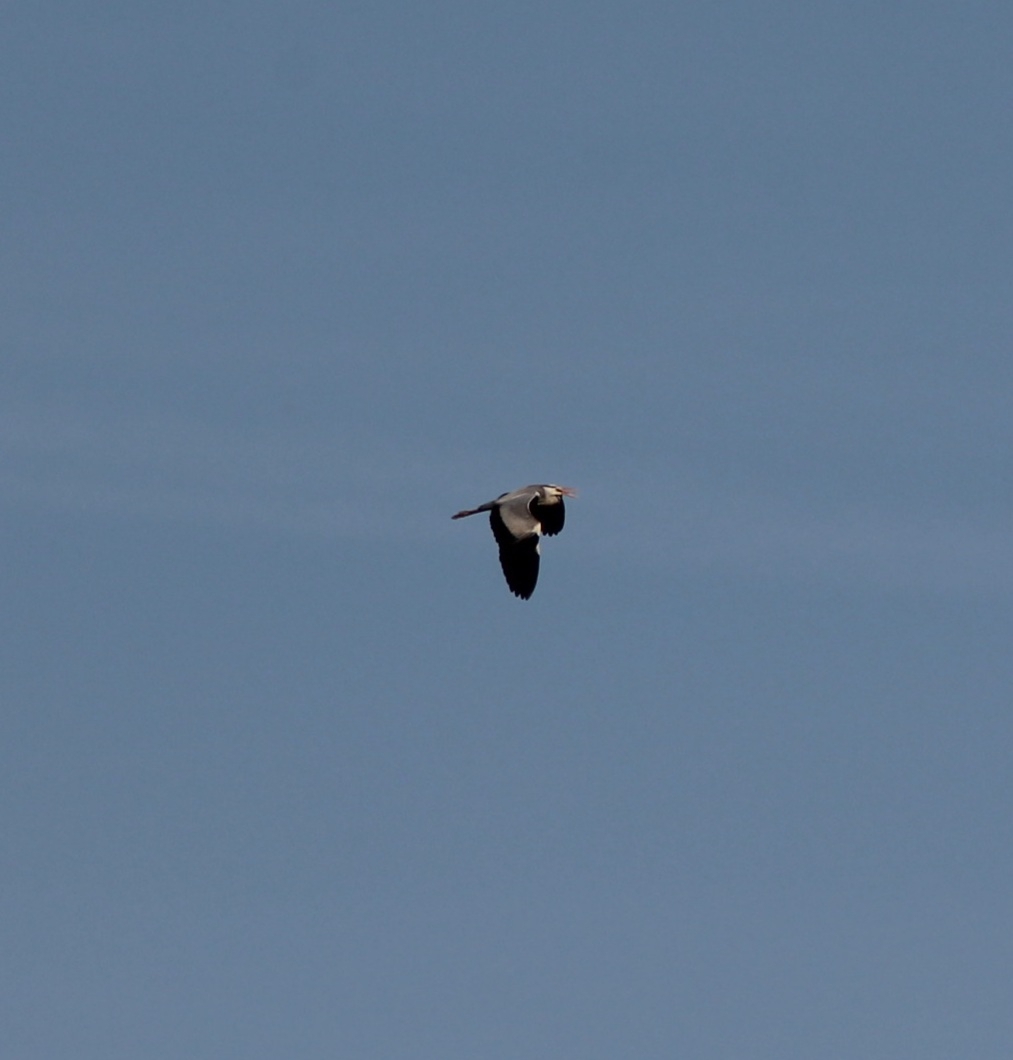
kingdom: Animalia
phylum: Chordata
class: Aves
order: Pelecaniformes
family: Ardeidae
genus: Ardea
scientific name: Ardea cinerea
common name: Grey heron
